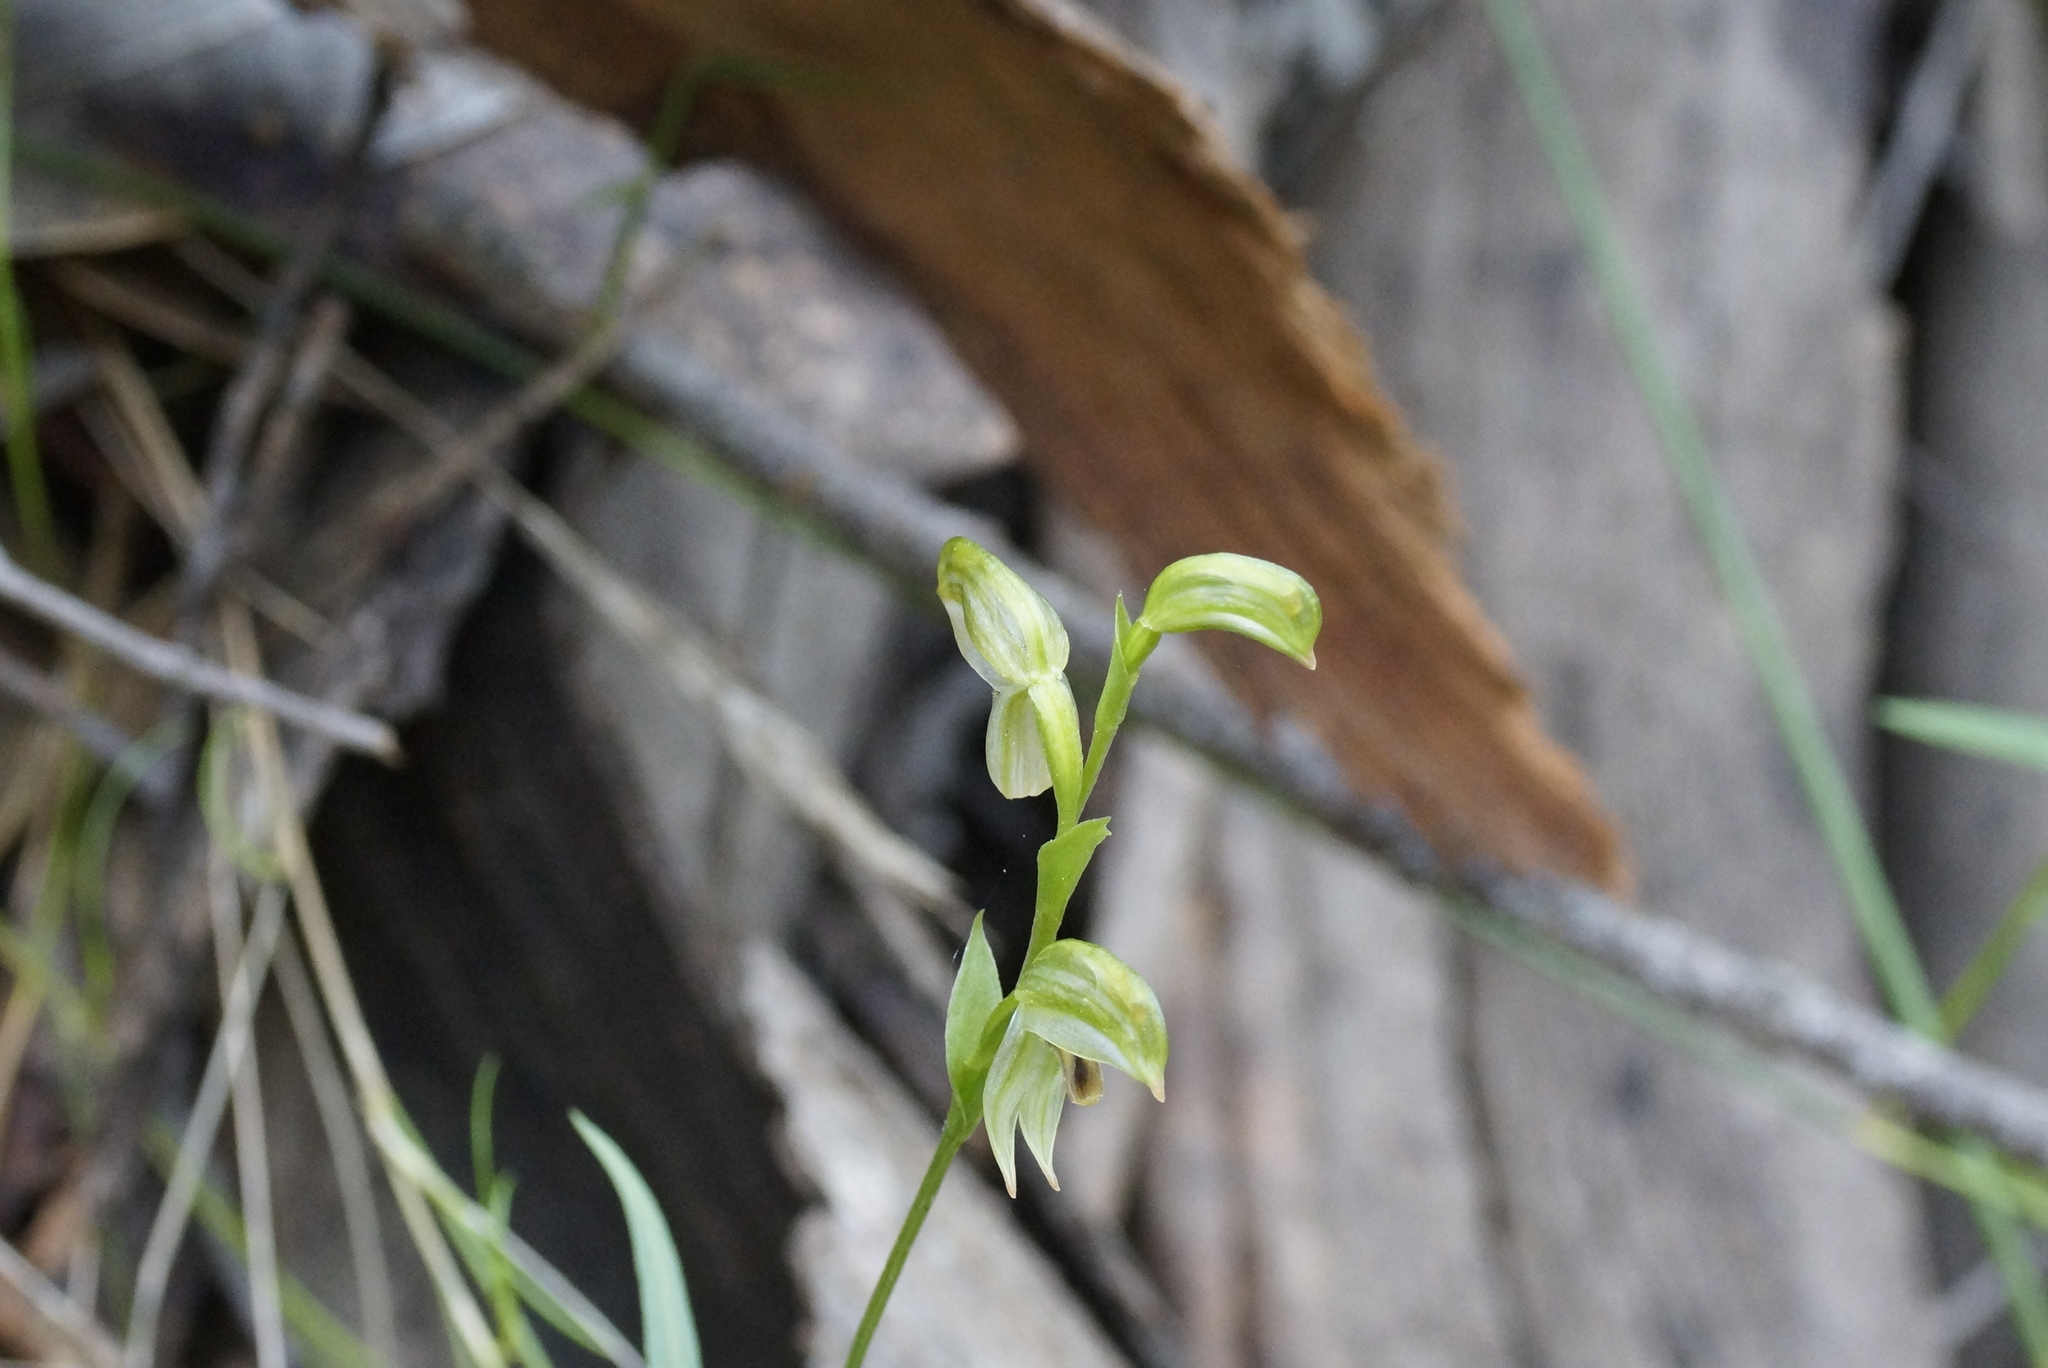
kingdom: Plantae
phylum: Tracheophyta
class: Liliopsida
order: Asparagales
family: Orchidaceae
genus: Pterostylis
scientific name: Pterostylis melagramma
